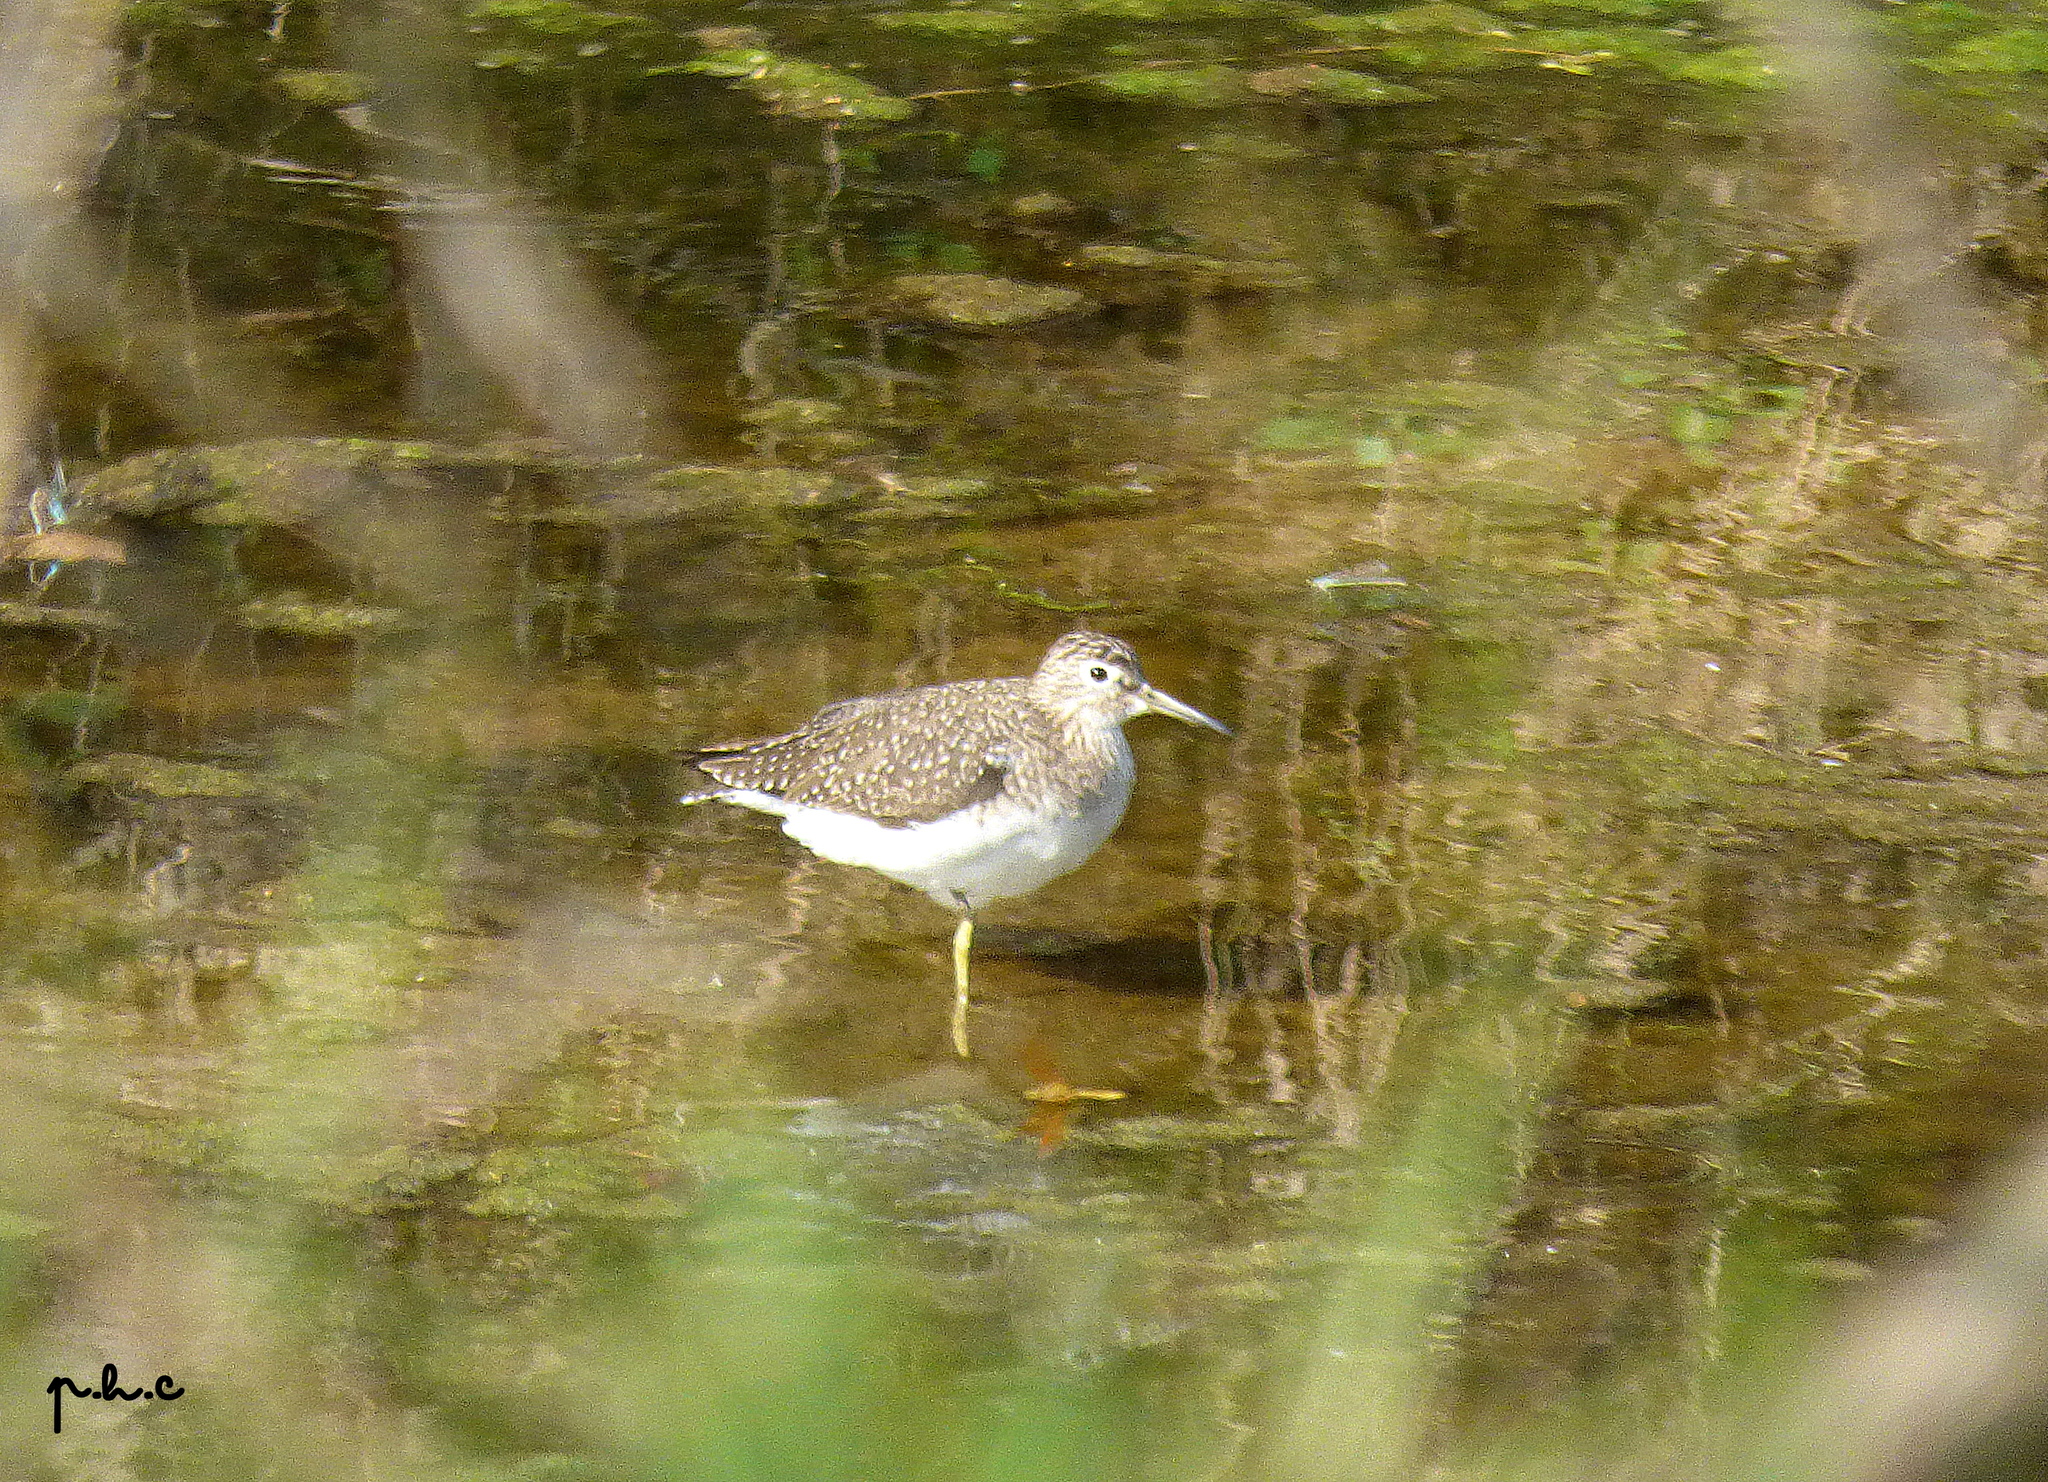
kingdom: Animalia
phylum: Chordata
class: Aves
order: Charadriiformes
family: Scolopacidae
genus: Tringa
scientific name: Tringa solitaria
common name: Solitary sandpiper
